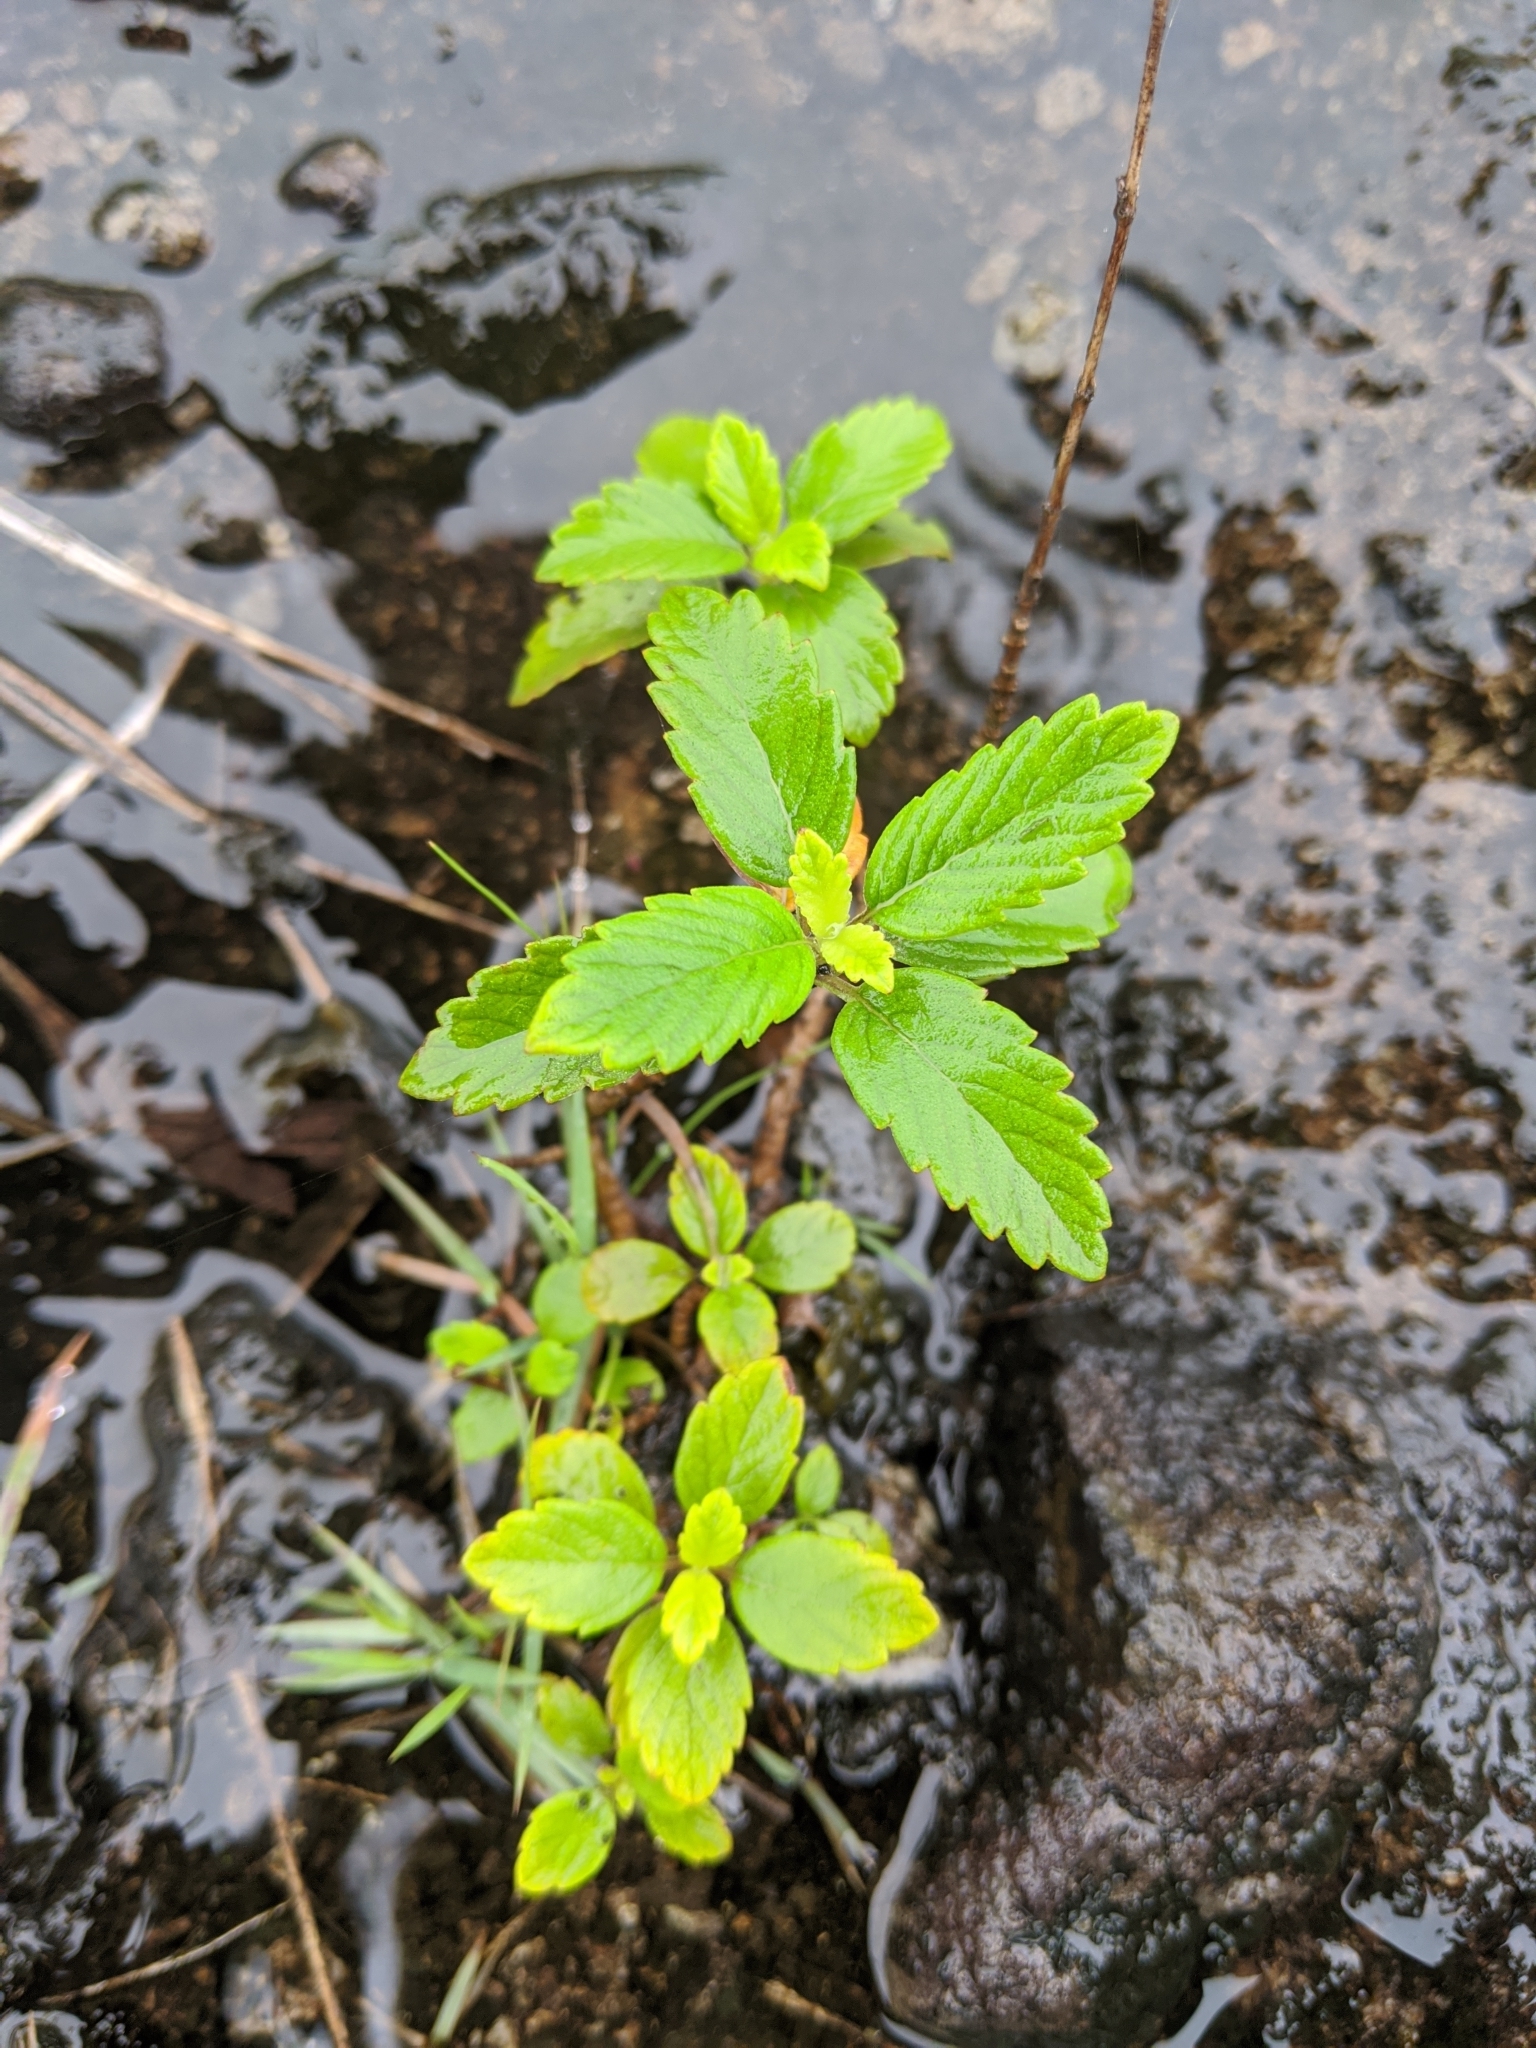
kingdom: Plantae
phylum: Tracheophyta
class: Magnoliopsida
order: Lamiales
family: Lamiaceae
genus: Caryopteris
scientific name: Caryopteris incana
